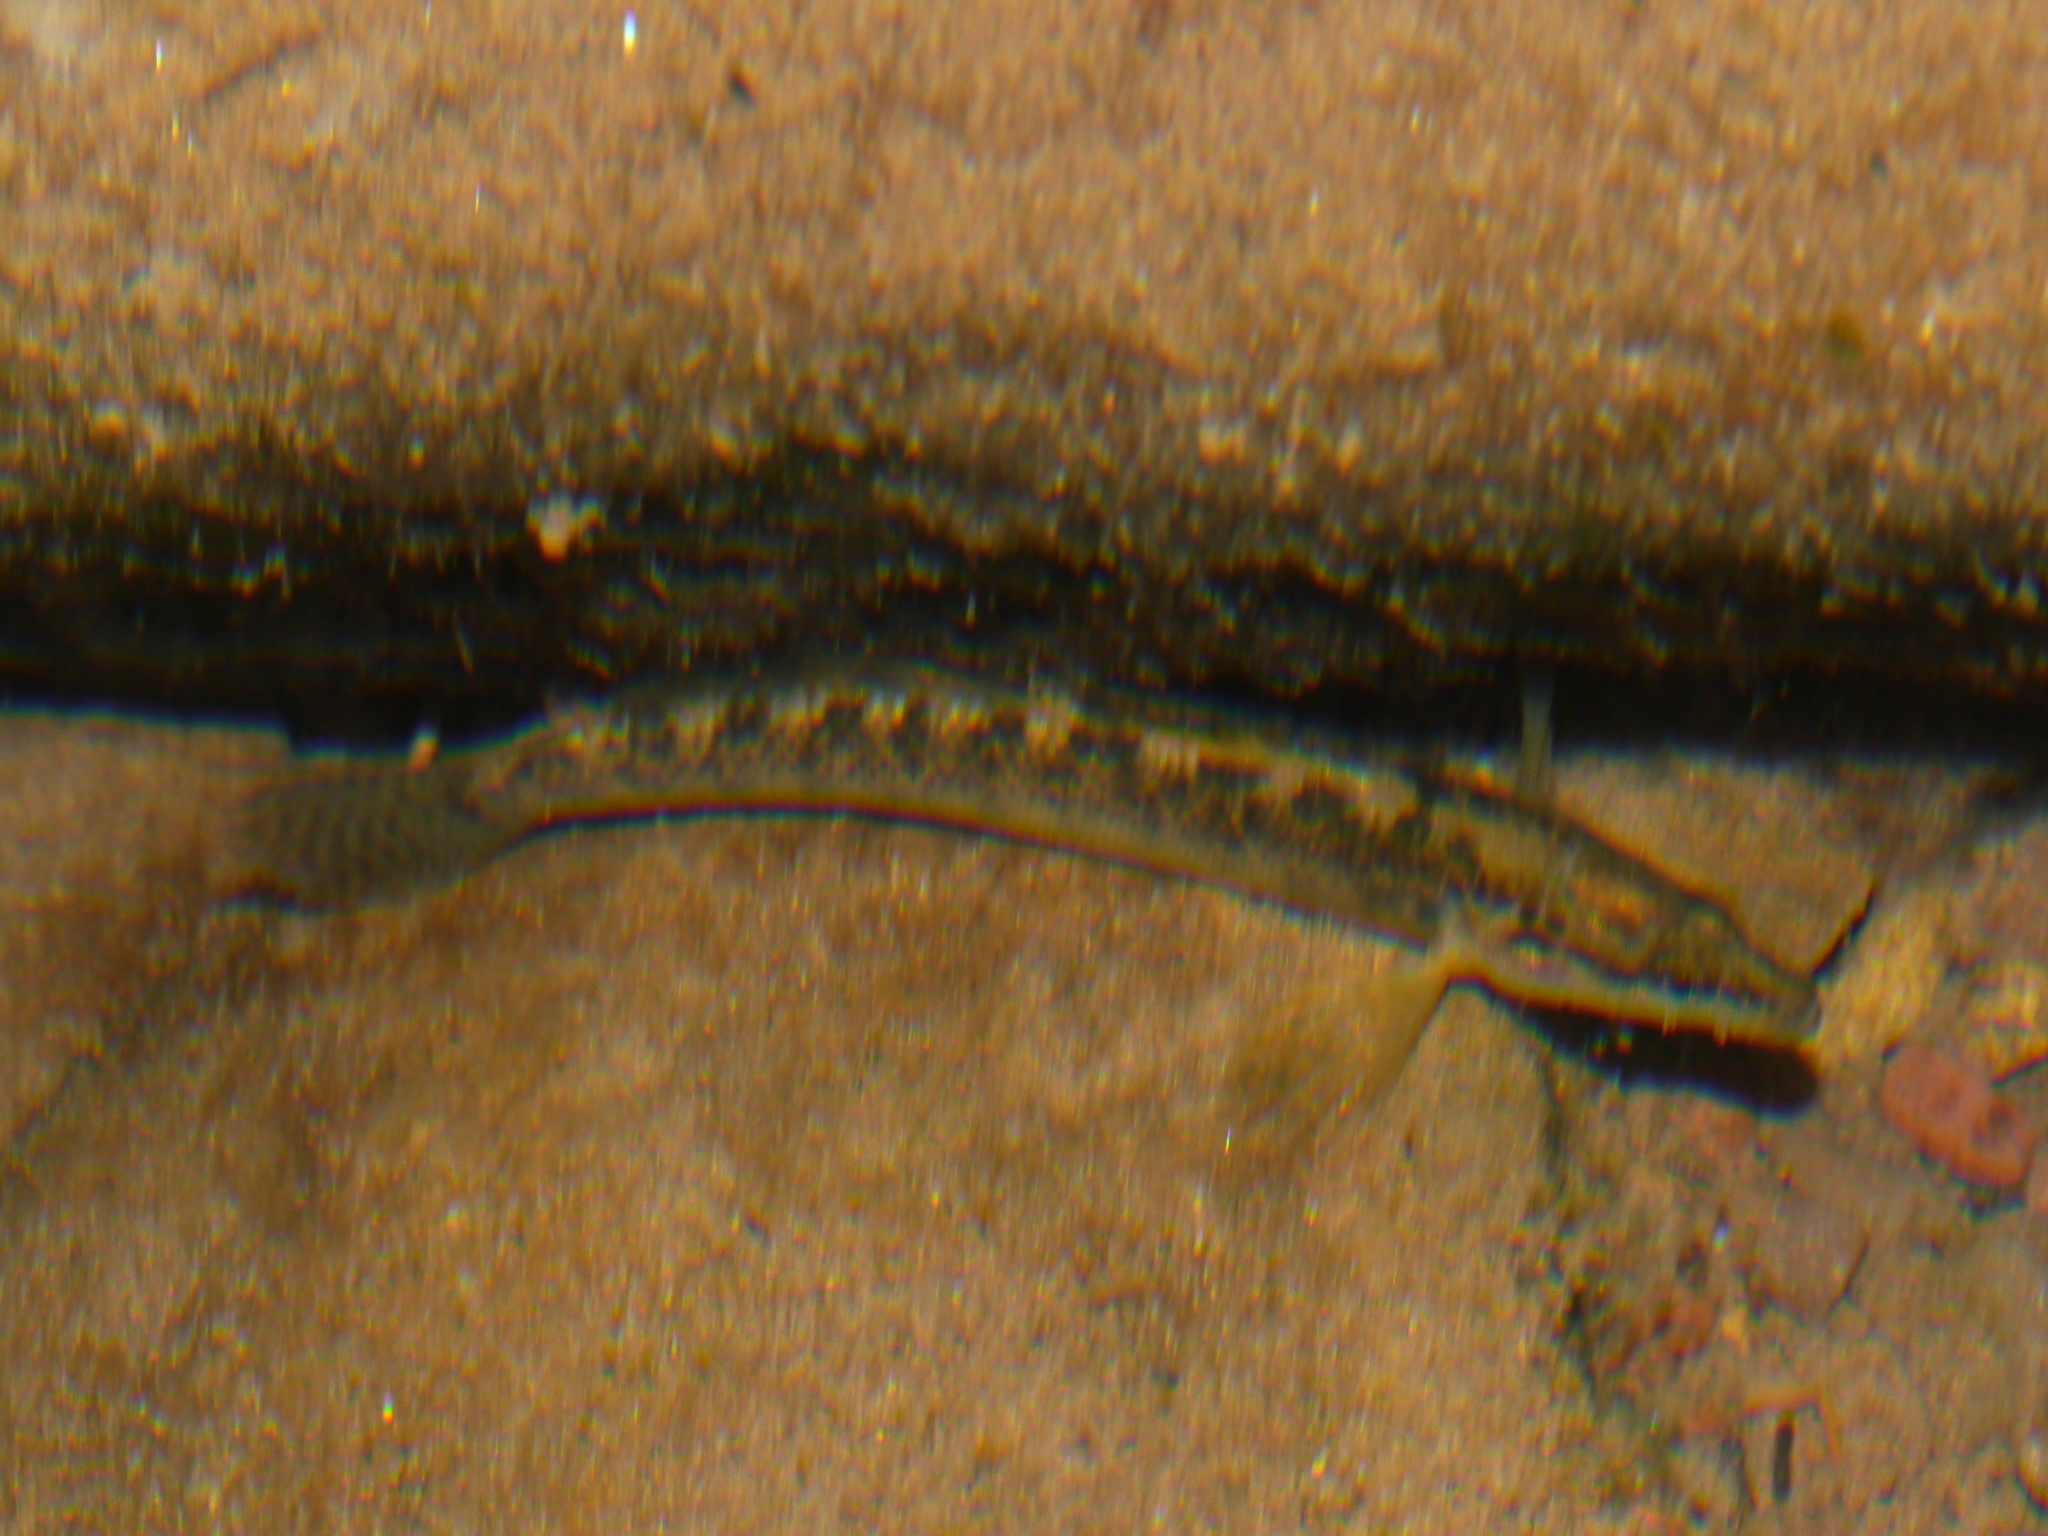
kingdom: Animalia
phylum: Chordata
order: Perciformes
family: Percidae
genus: Etheostoma
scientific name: Etheostoma flabellare
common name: Fantail darter
